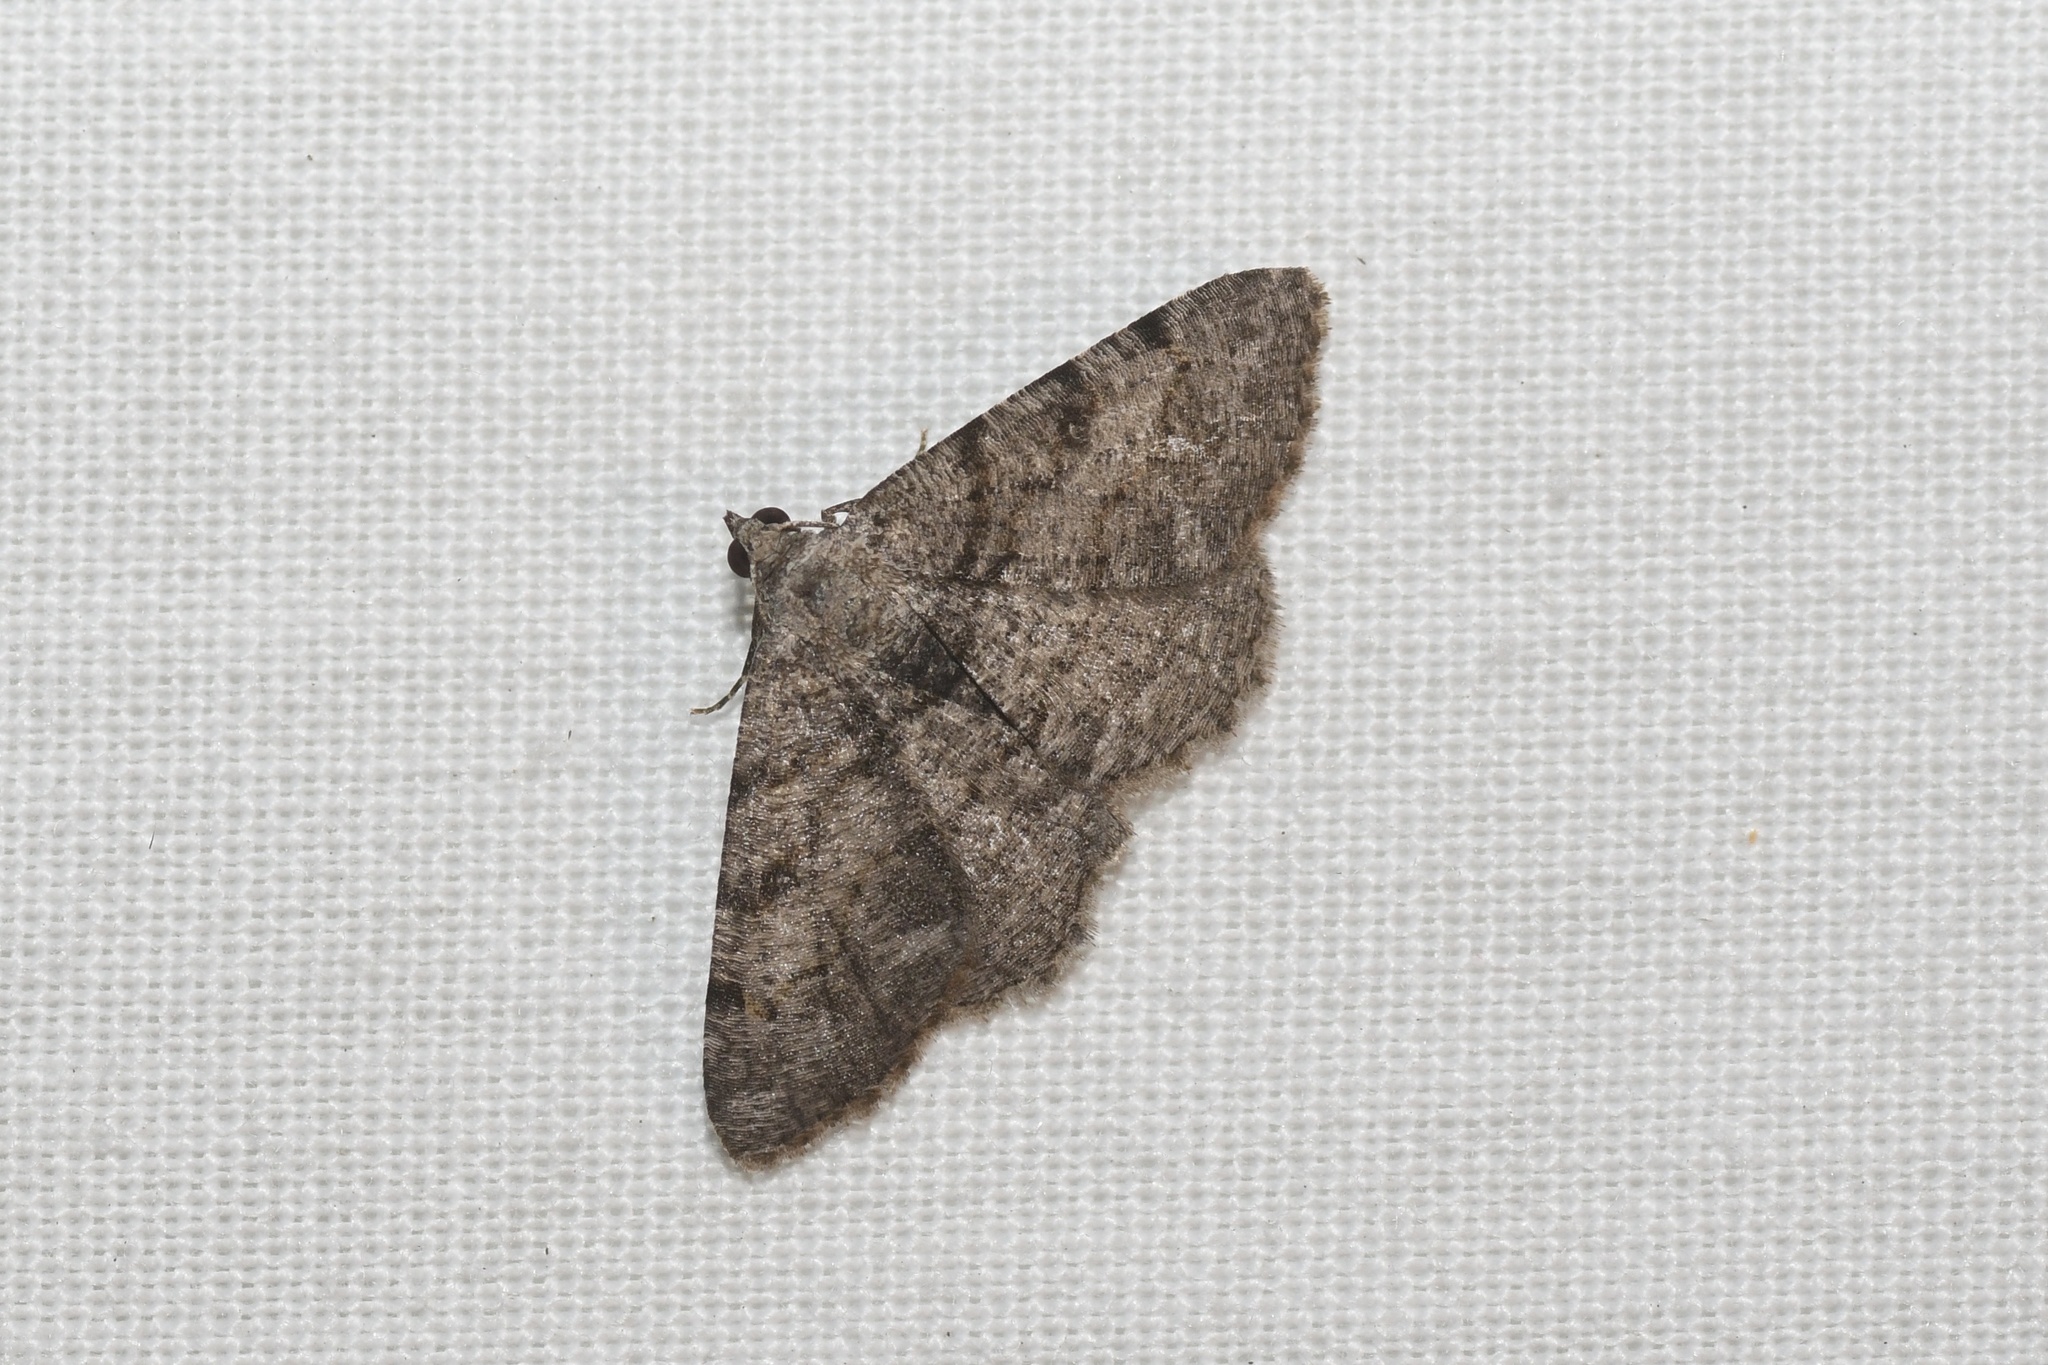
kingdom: Animalia
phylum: Arthropoda
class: Insecta
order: Lepidoptera
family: Geometridae
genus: Digrammia
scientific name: Digrammia gnophosaria
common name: Hollow-spotted angle
